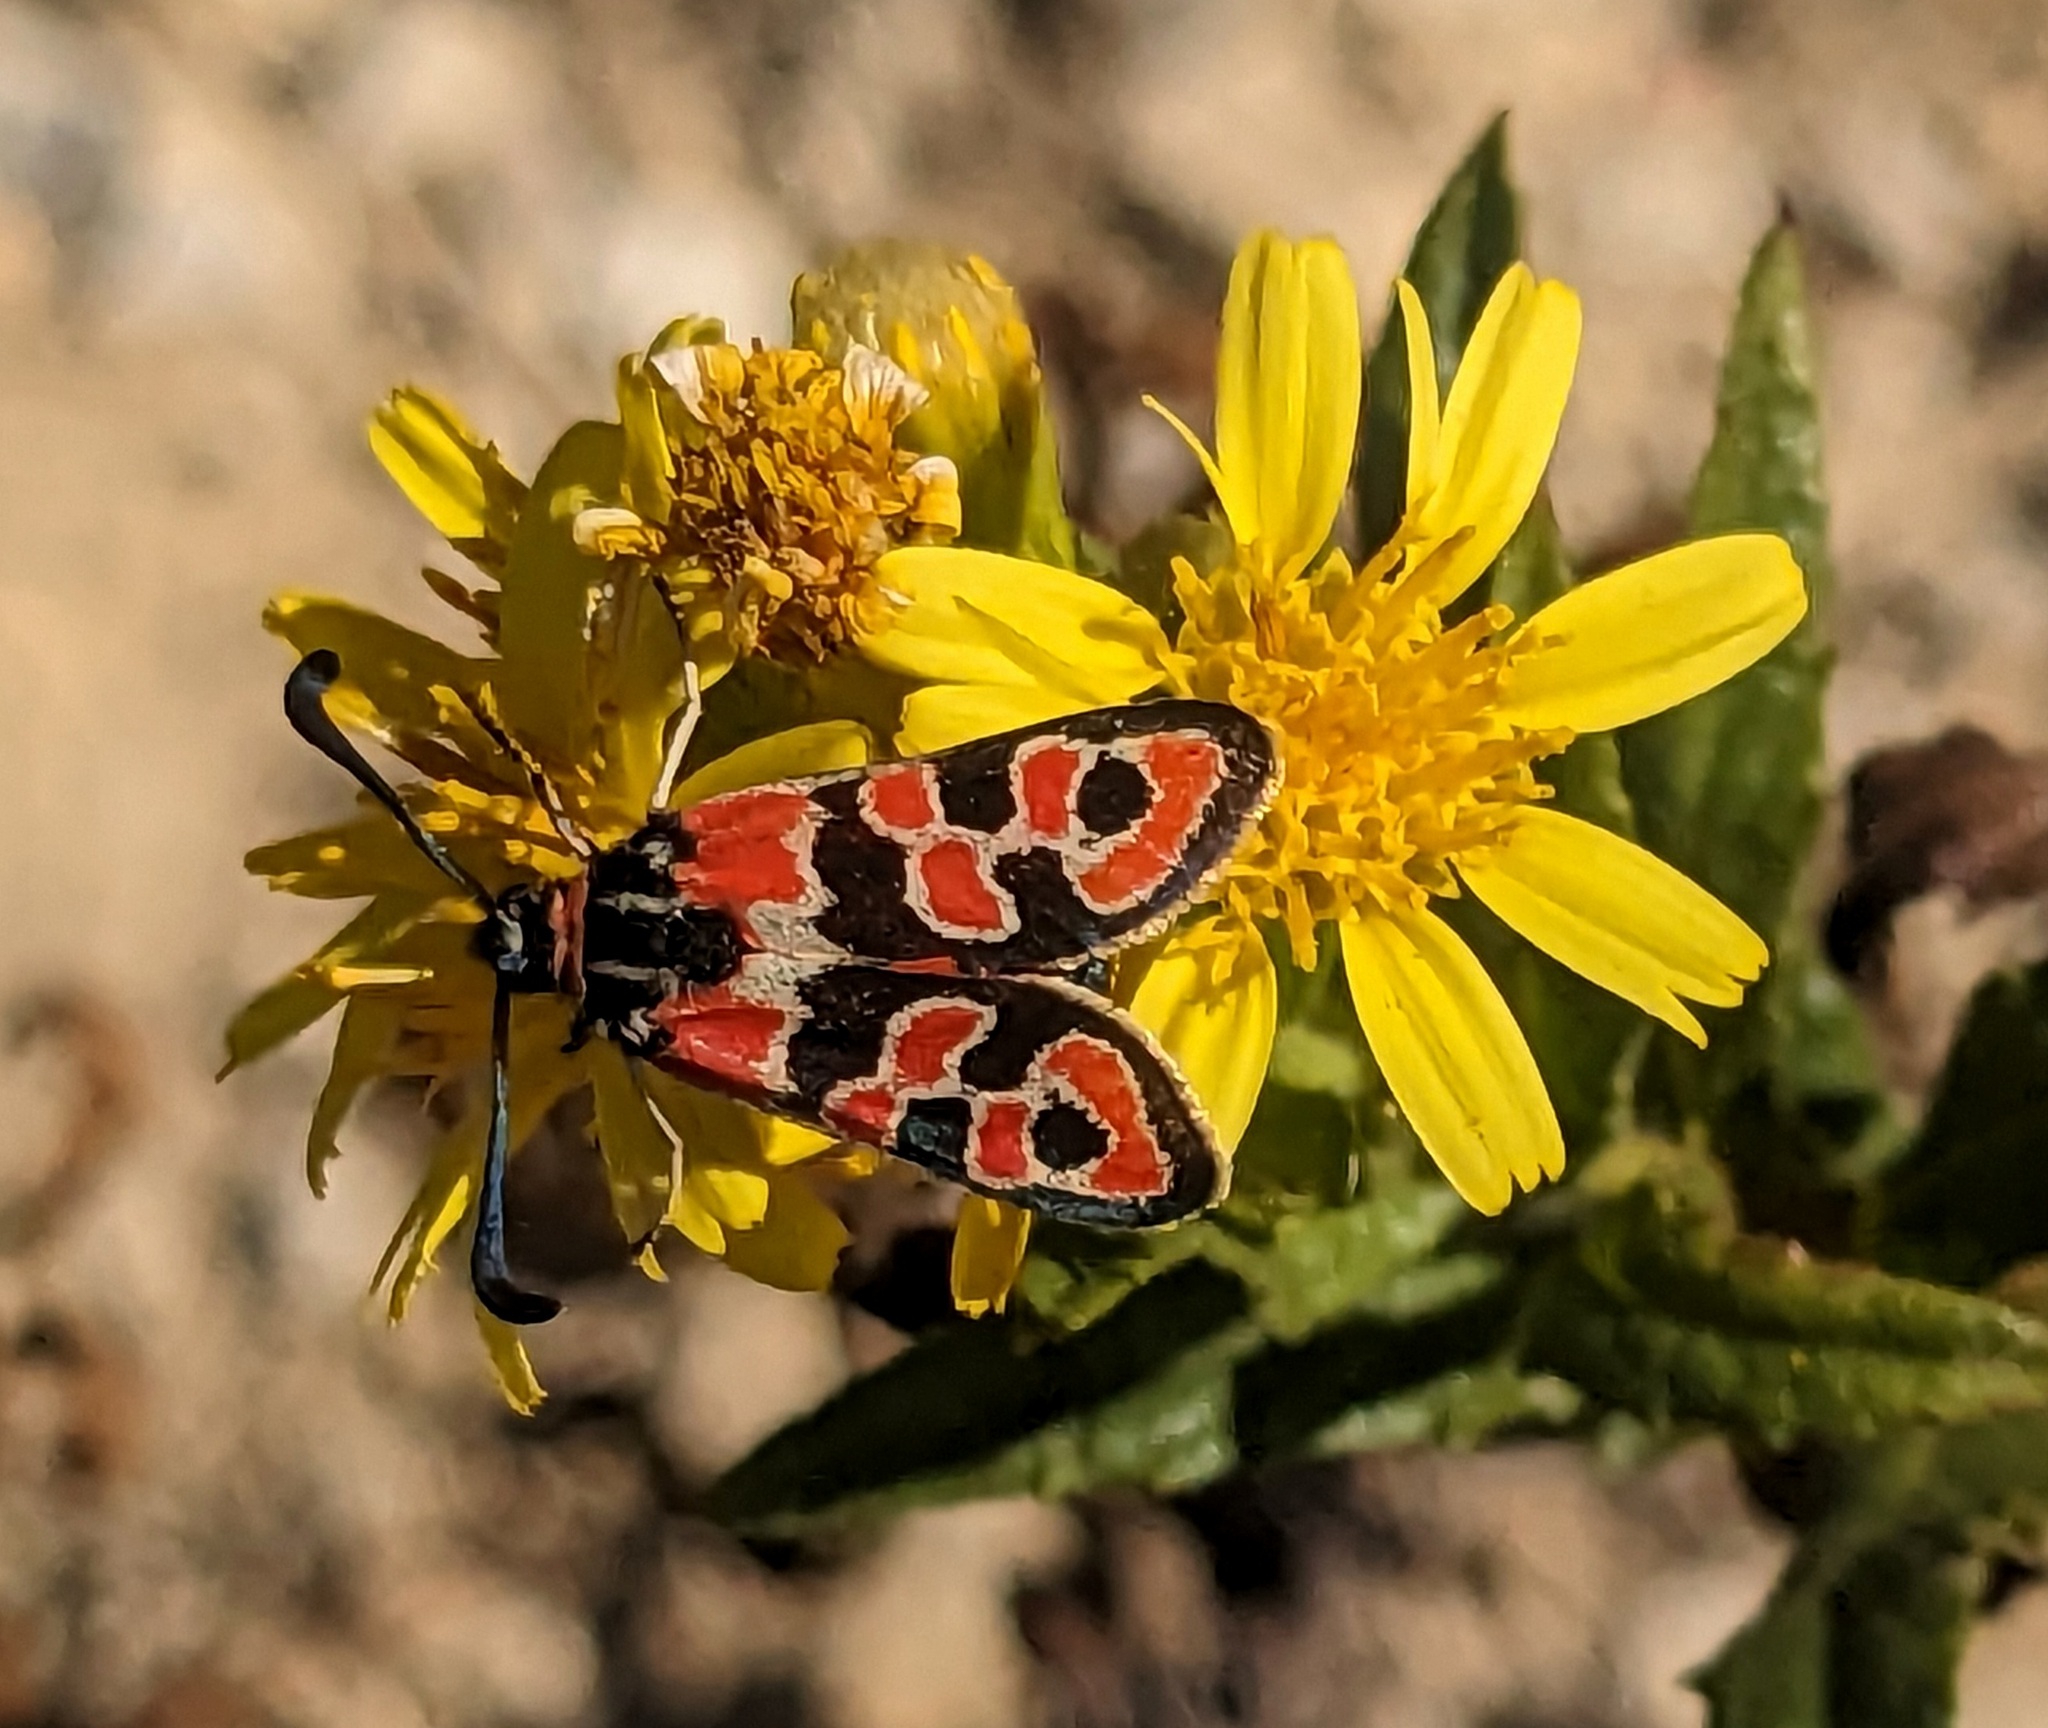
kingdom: Animalia
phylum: Arthropoda
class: Insecta
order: Lepidoptera
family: Zygaenidae
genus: Zygaena
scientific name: Zygaena fausta
